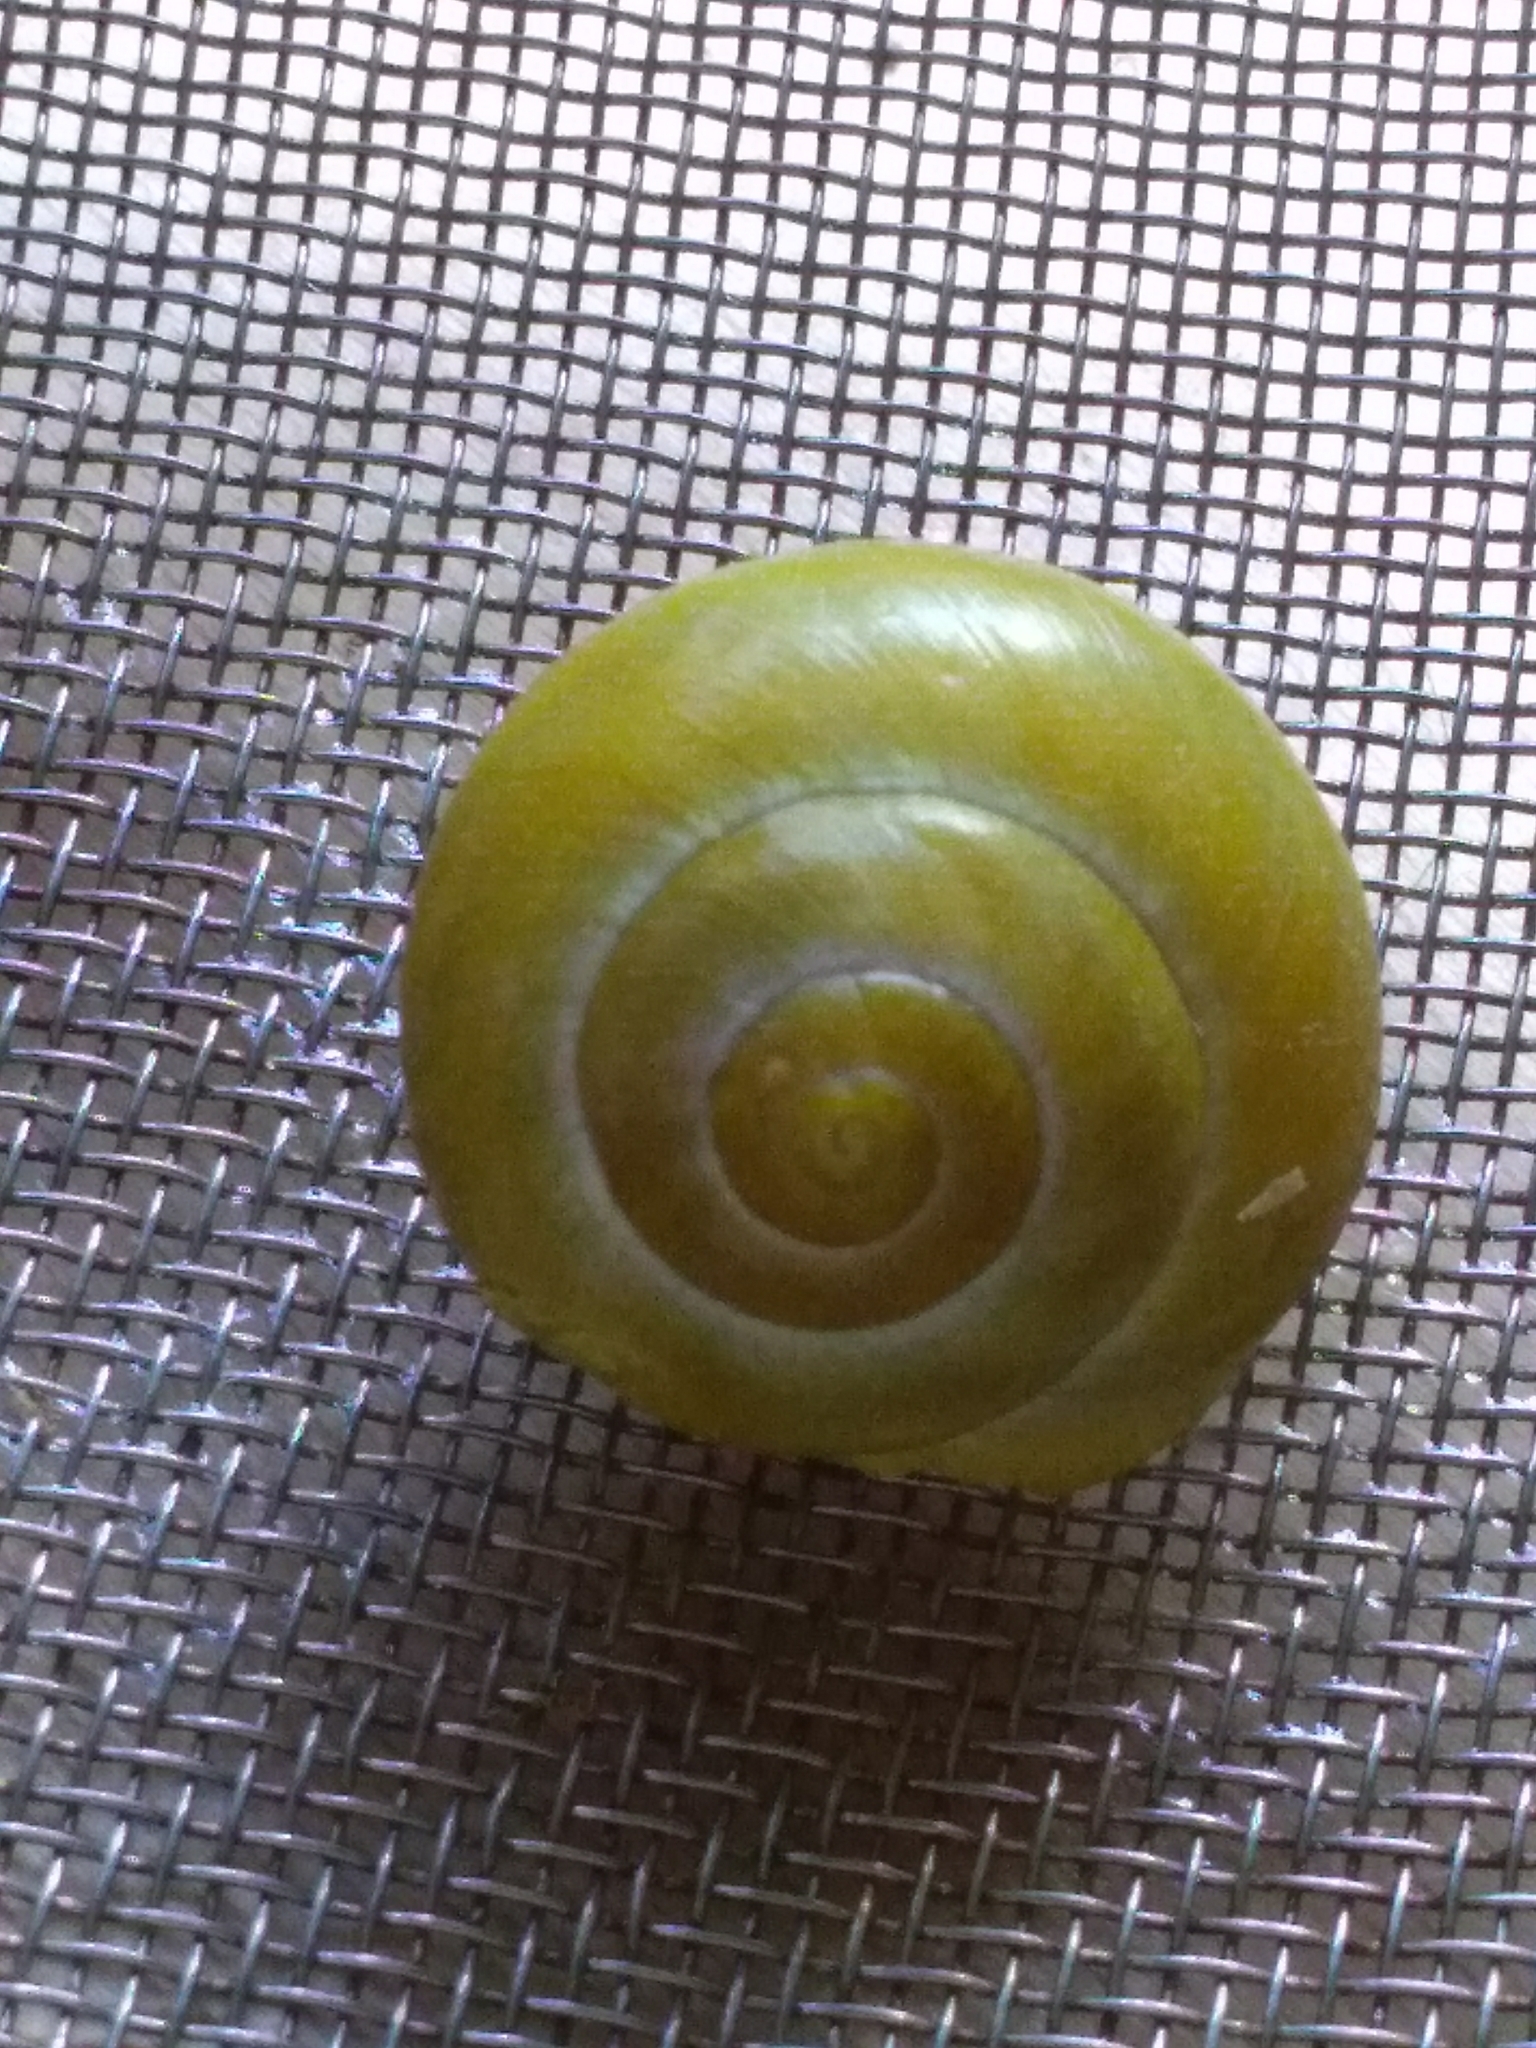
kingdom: Animalia
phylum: Mollusca
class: Gastropoda
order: Stylommatophora
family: Helicidae
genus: Cepaea
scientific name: Cepaea
